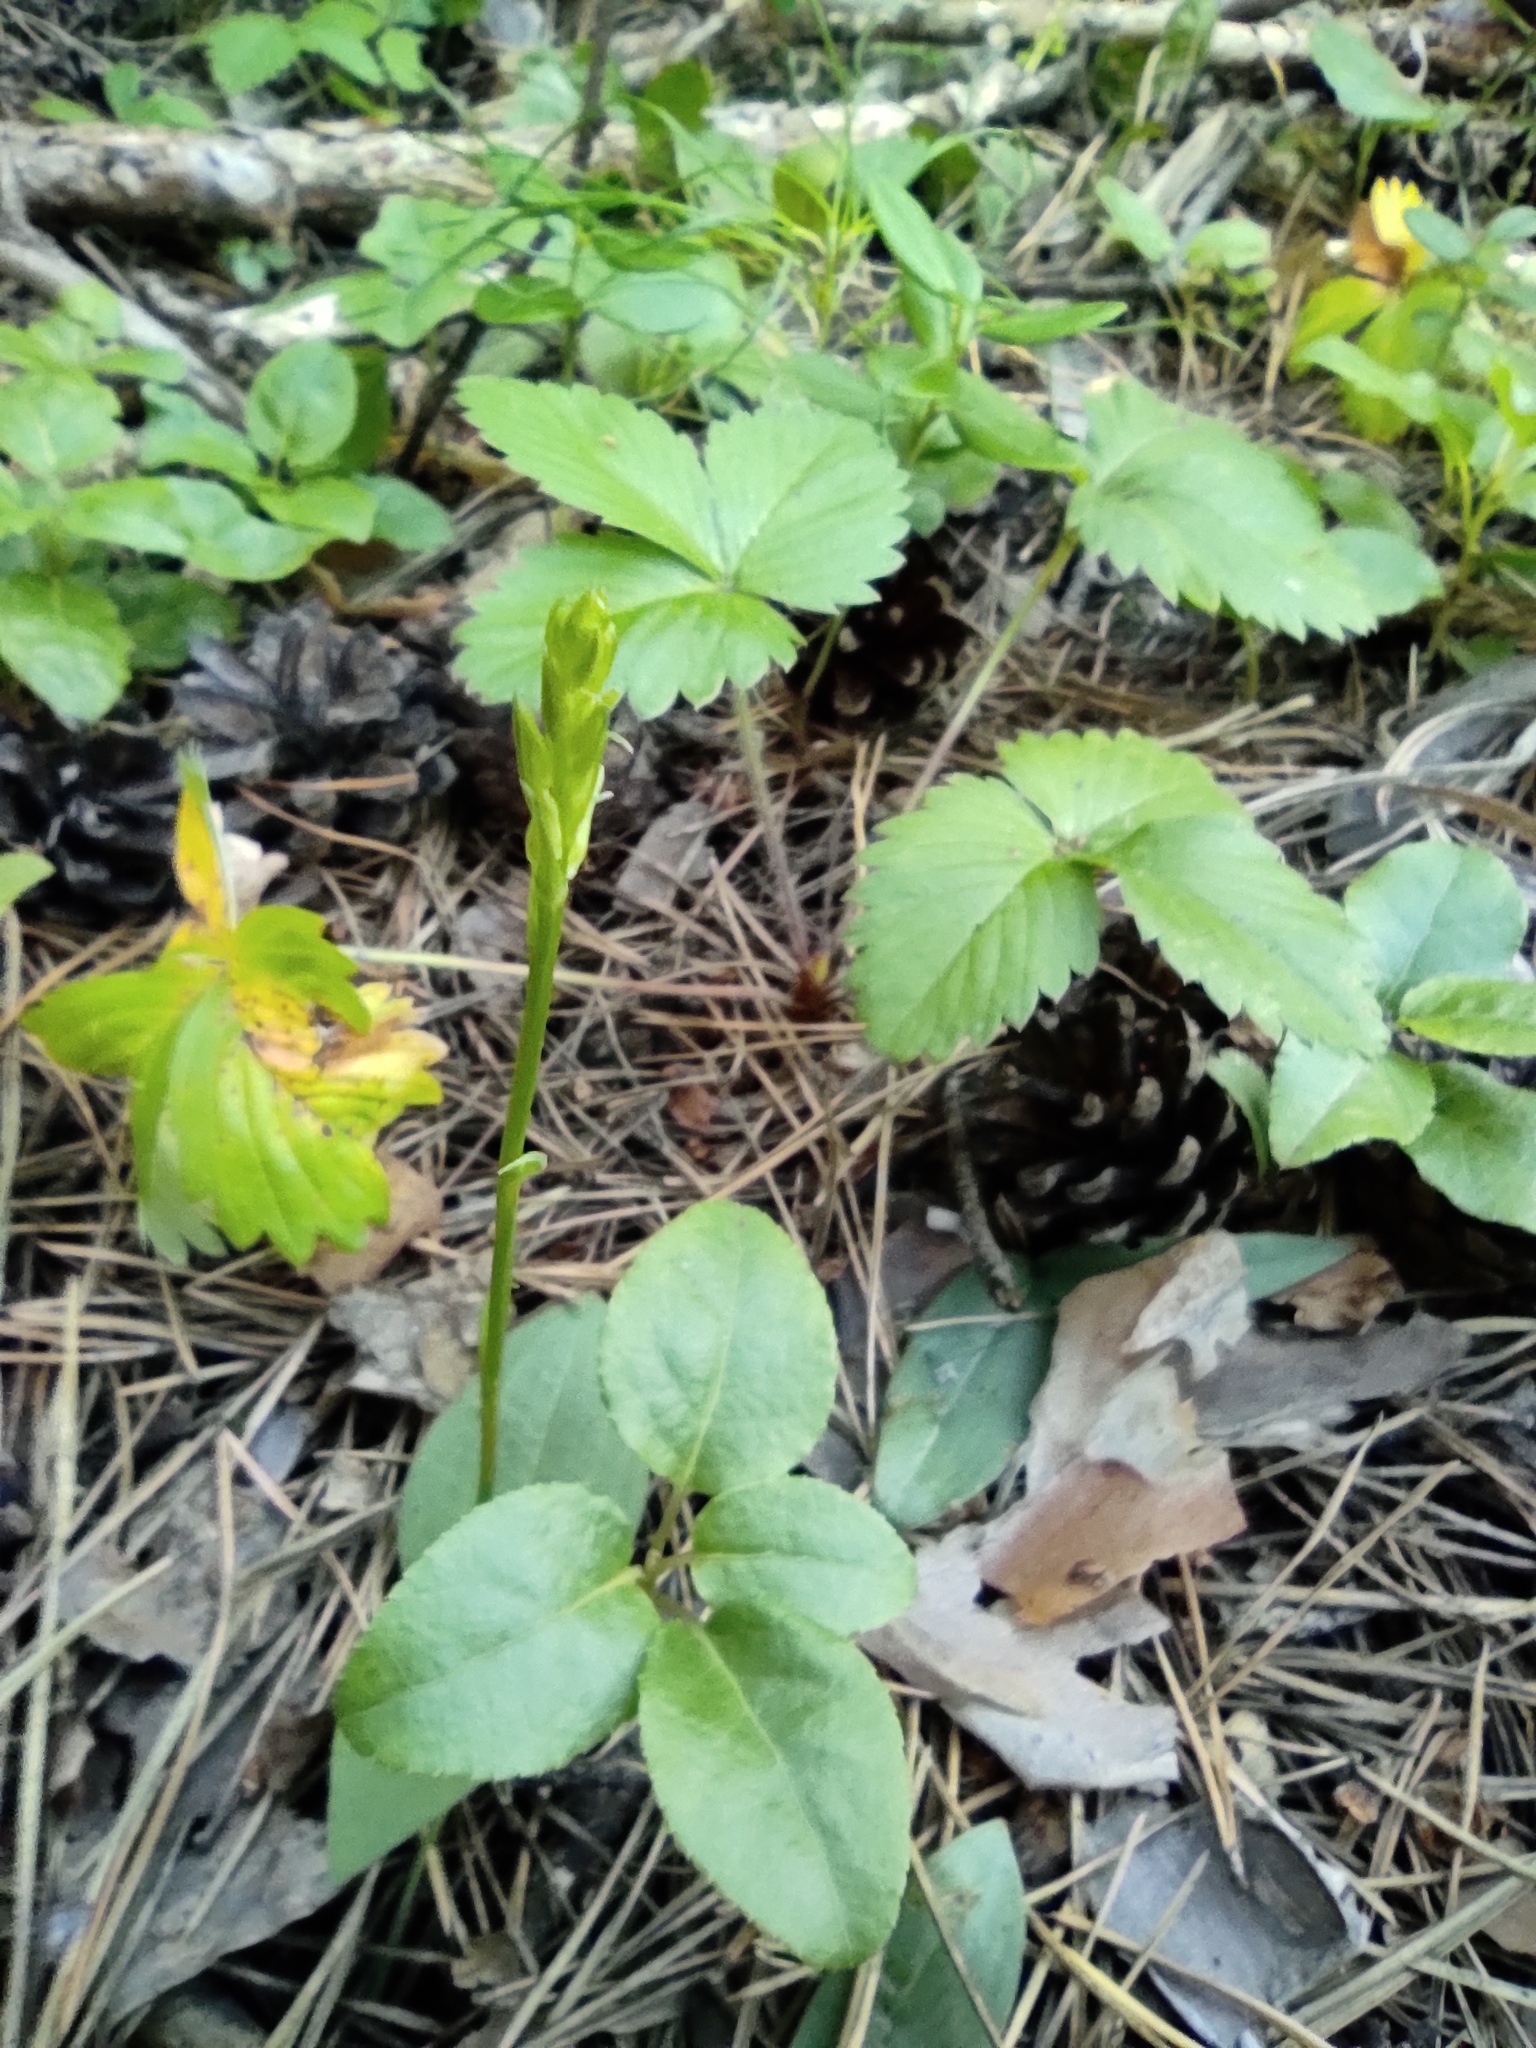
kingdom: Plantae
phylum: Tracheophyta
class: Liliopsida
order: Asparagales
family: Orchidaceae
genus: Hemipilia
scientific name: Hemipilia cucullata
